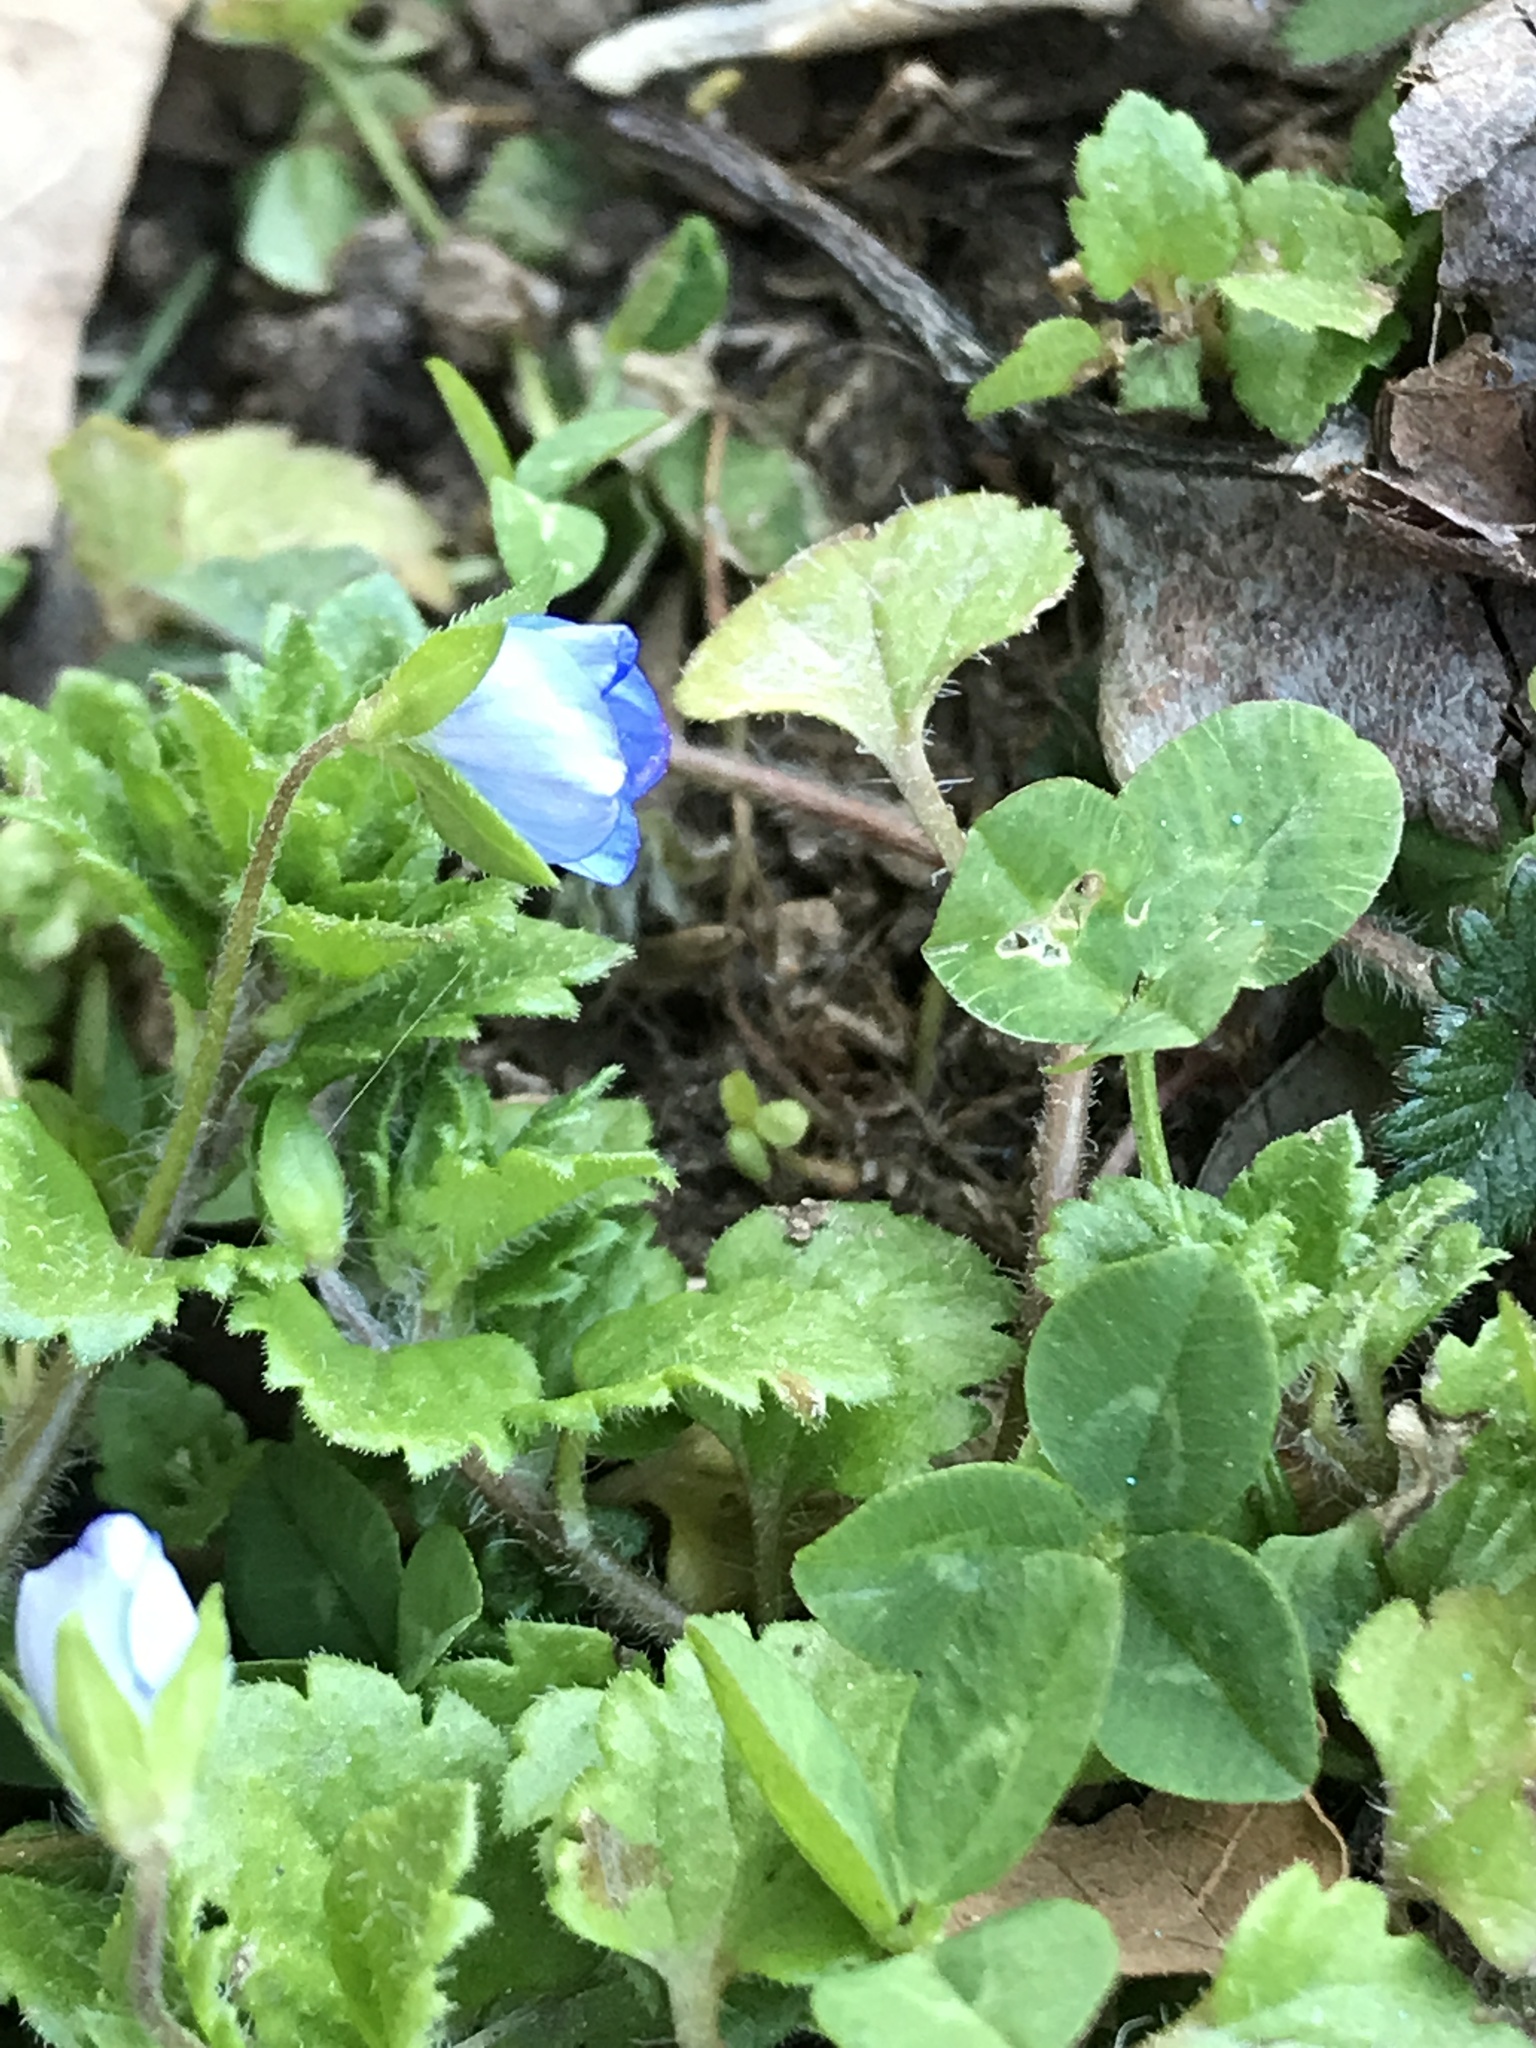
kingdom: Plantae
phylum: Tracheophyta
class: Magnoliopsida
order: Lamiales
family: Plantaginaceae
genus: Veronica
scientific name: Veronica persica
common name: Common field-speedwell
